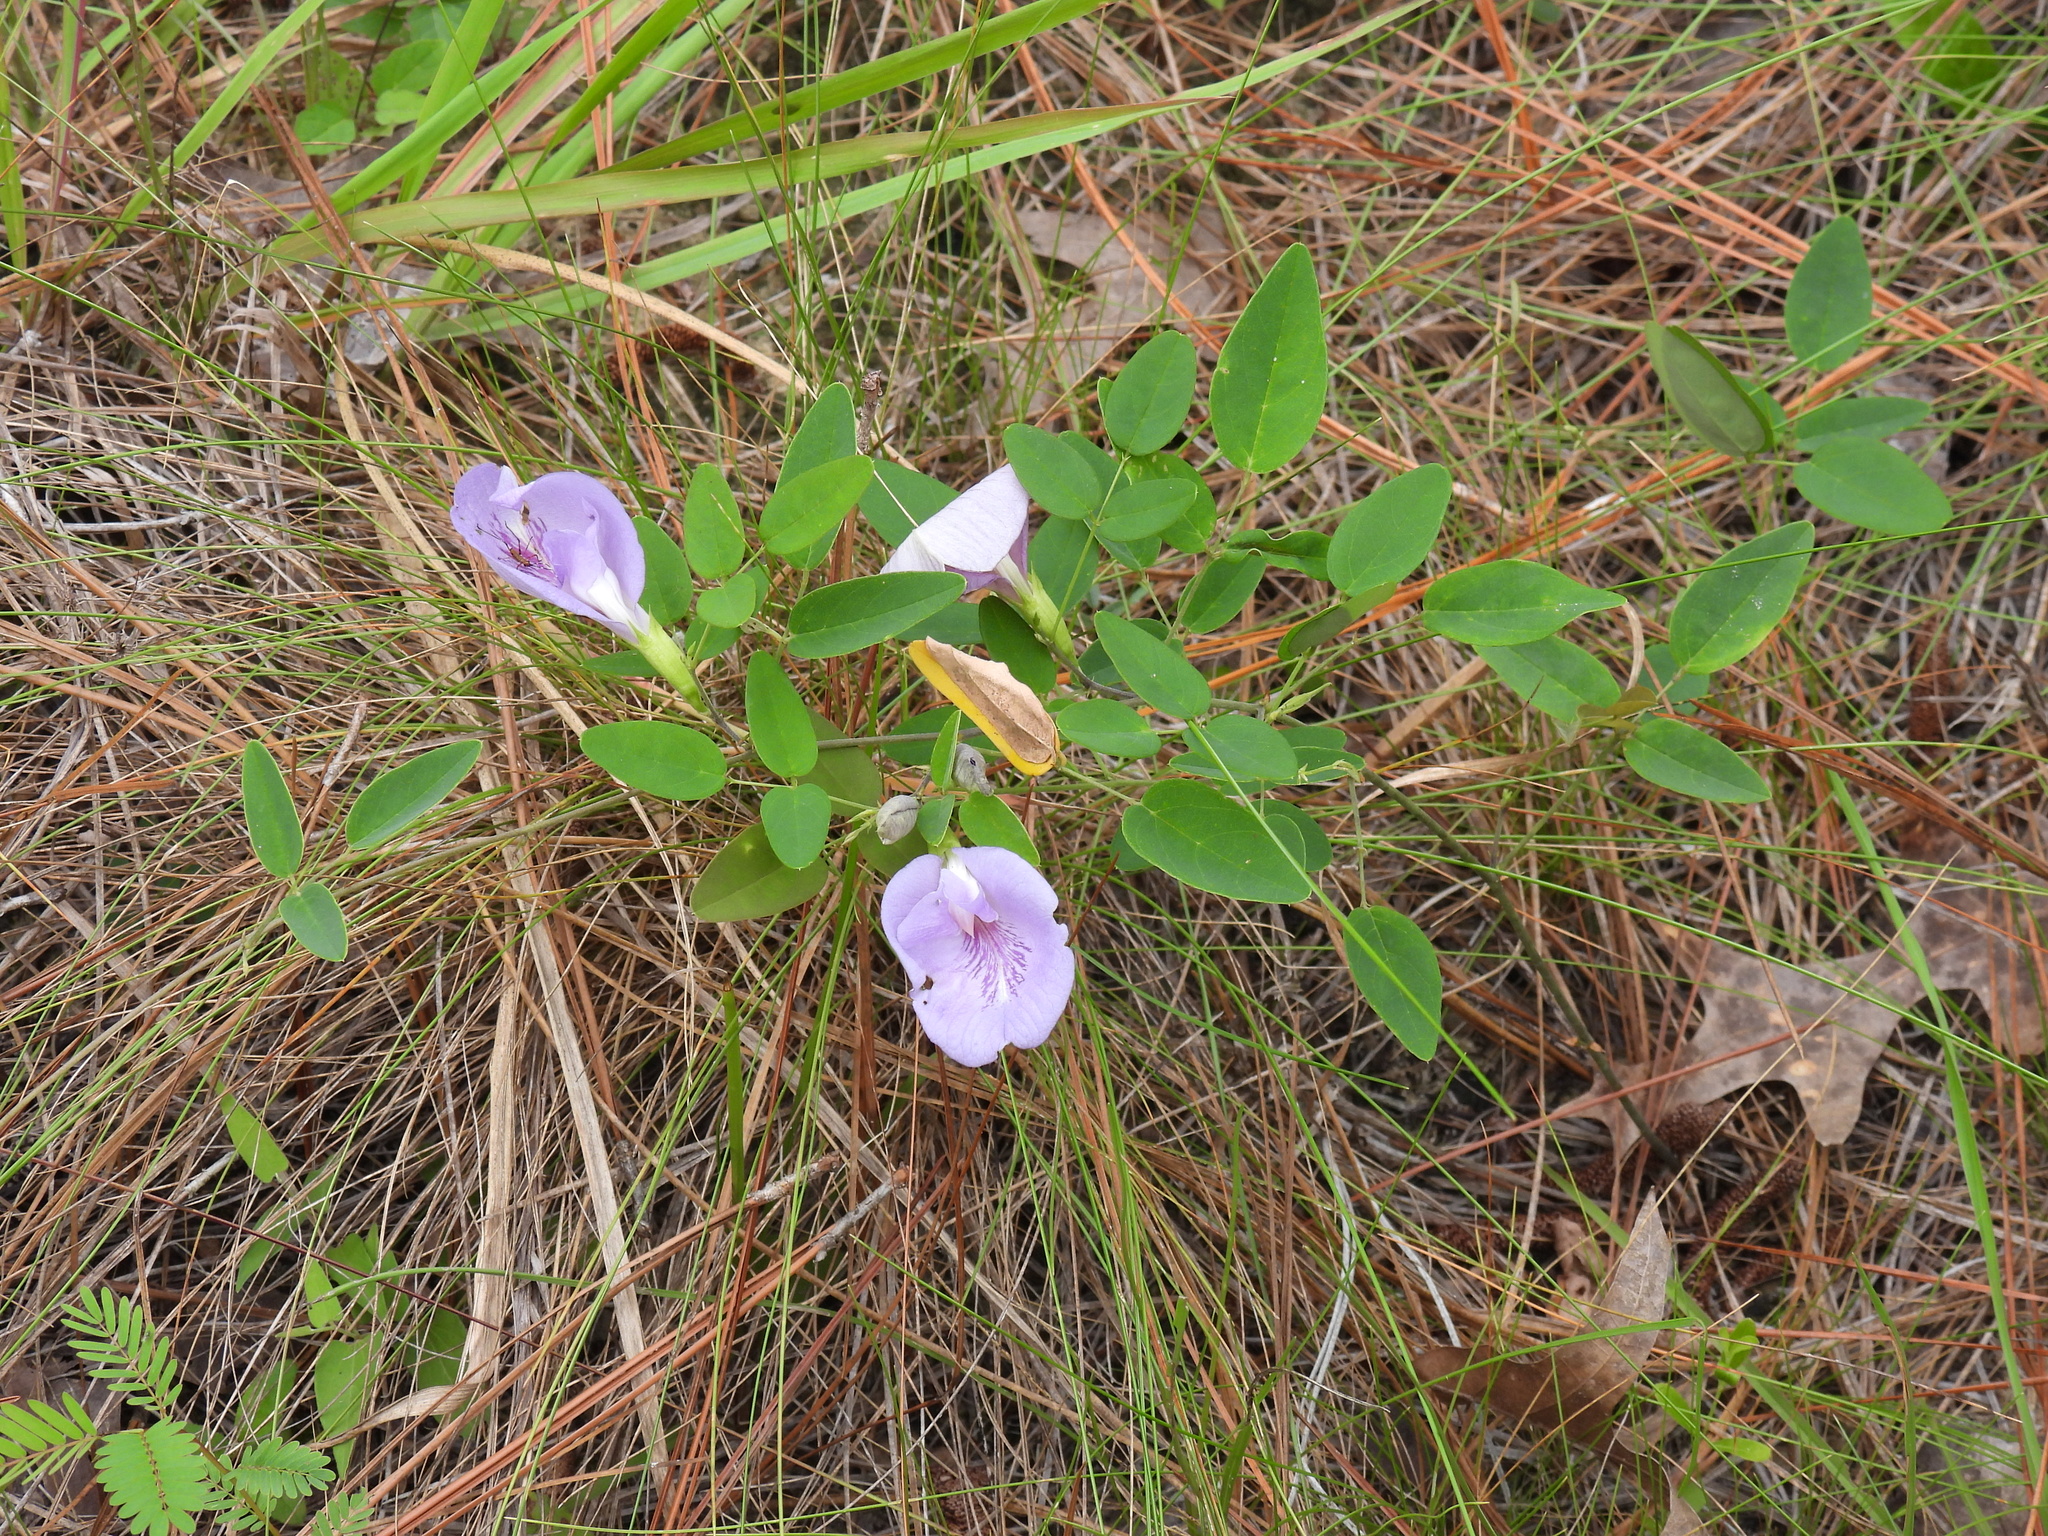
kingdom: Plantae
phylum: Tracheophyta
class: Magnoliopsida
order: Fabales
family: Fabaceae
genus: Clitoria
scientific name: Clitoria mariana
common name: Butterfly-pea
